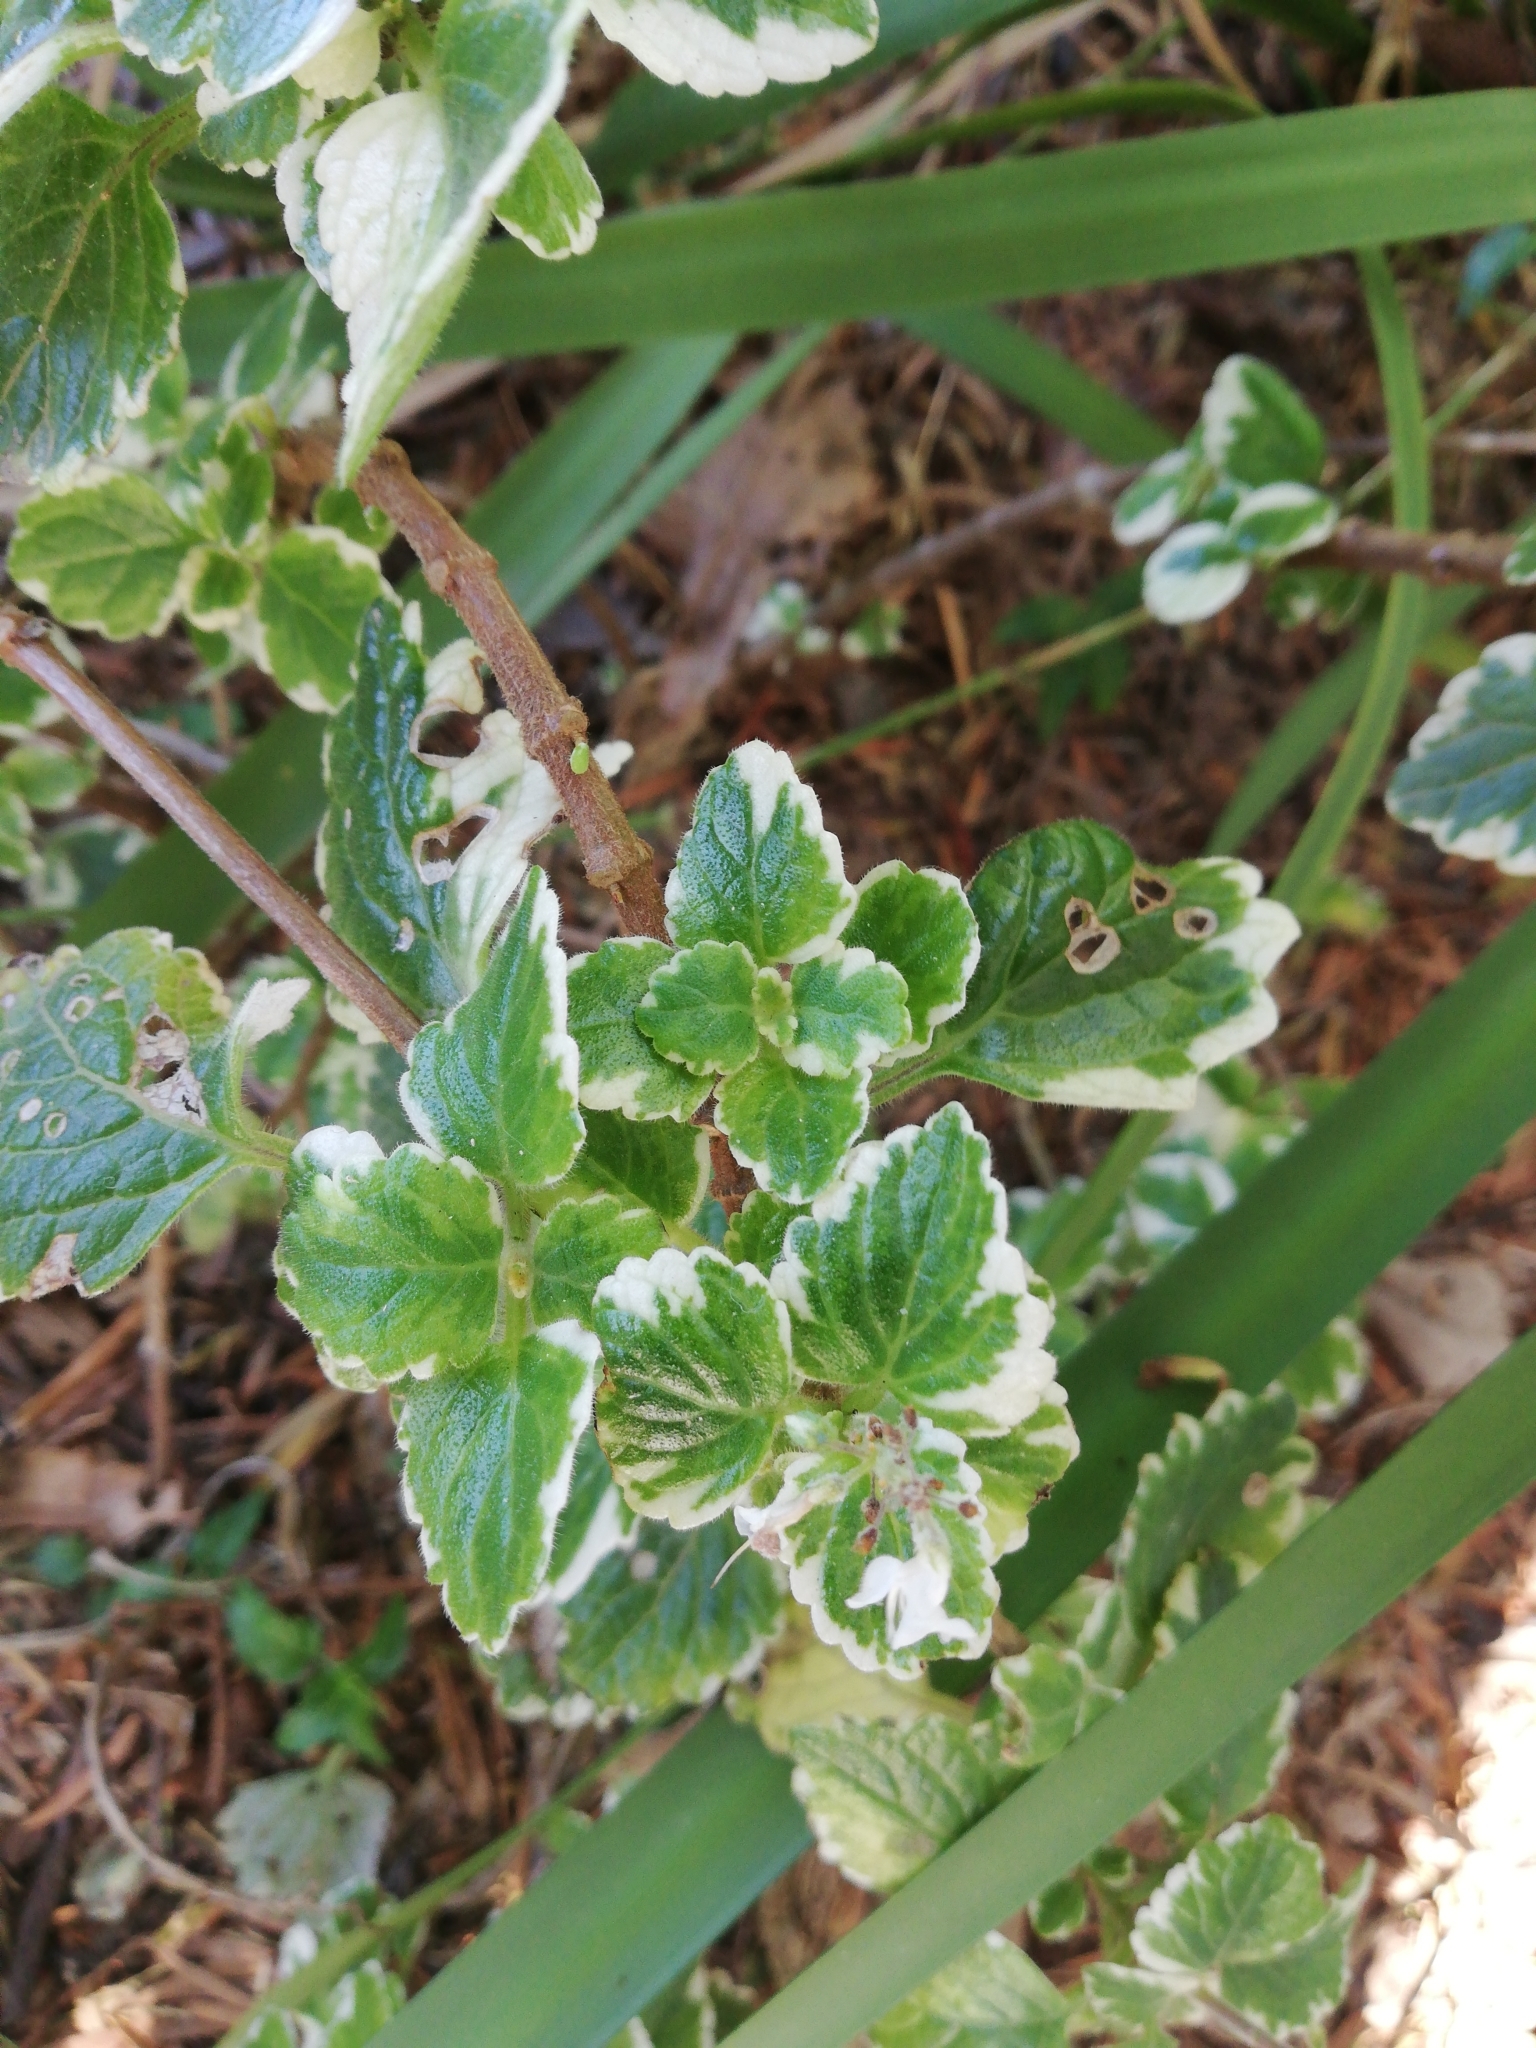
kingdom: Plantae
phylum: Tracheophyta
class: Magnoliopsida
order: Lamiales
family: Lamiaceae
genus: Coleus
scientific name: Coleus madagascariensis
